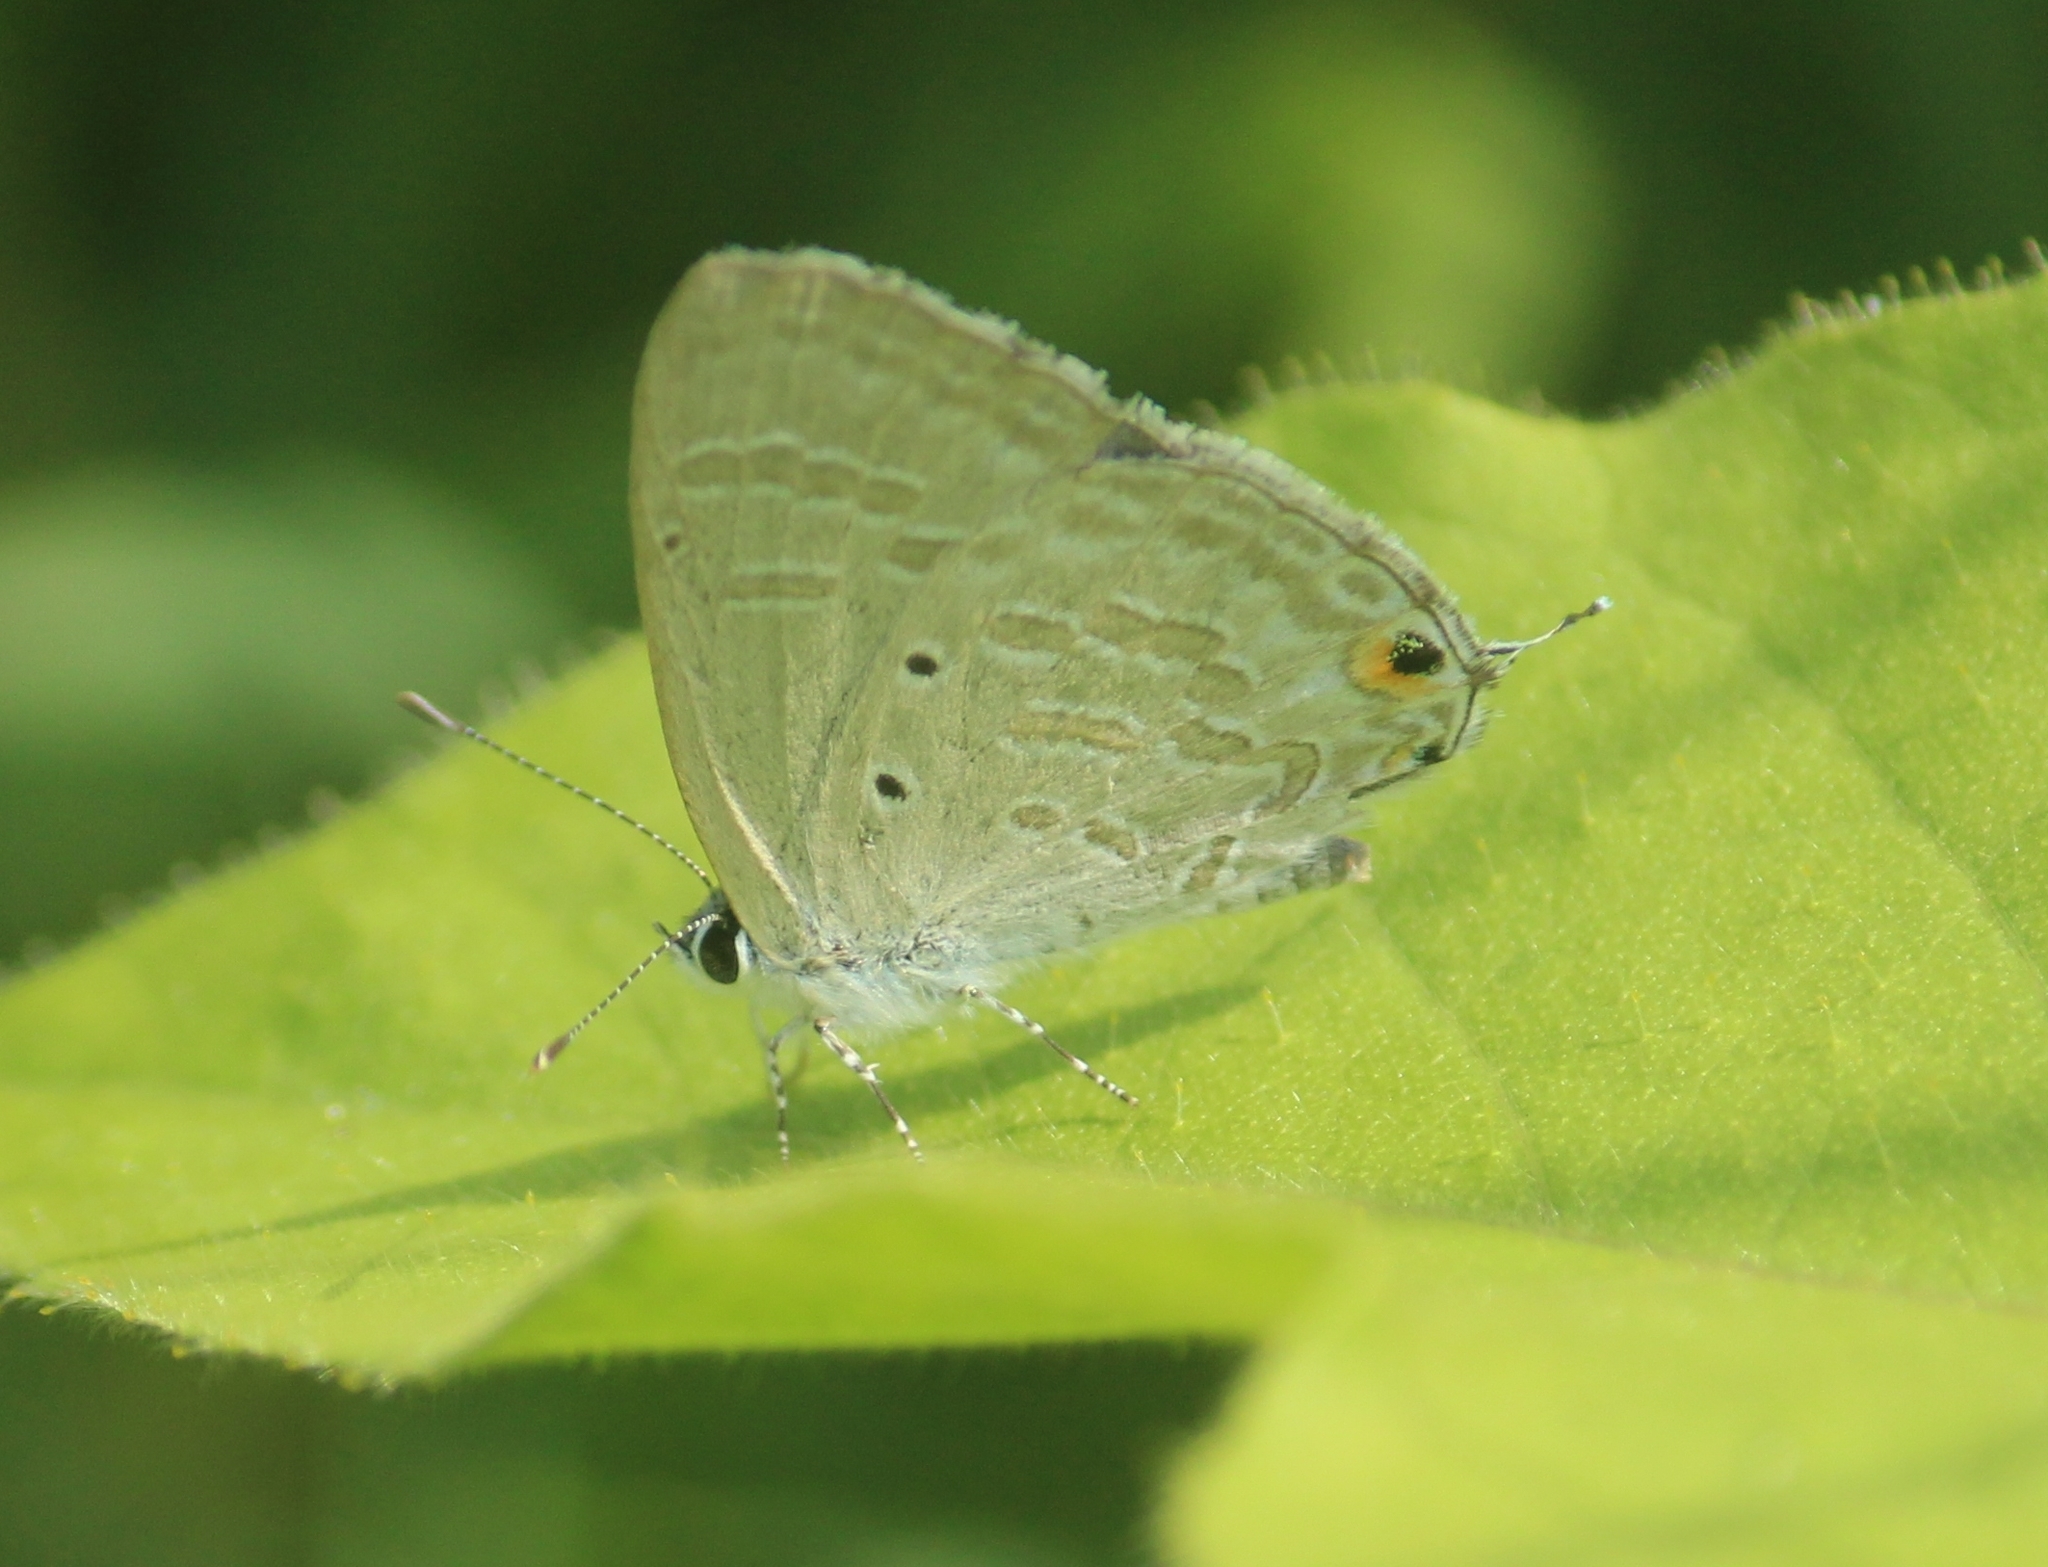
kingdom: Animalia
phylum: Arthropoda
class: Insecta
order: Lepidoptera
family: Lycaenidae
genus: Catochrysops
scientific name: Catochrysops strabo
